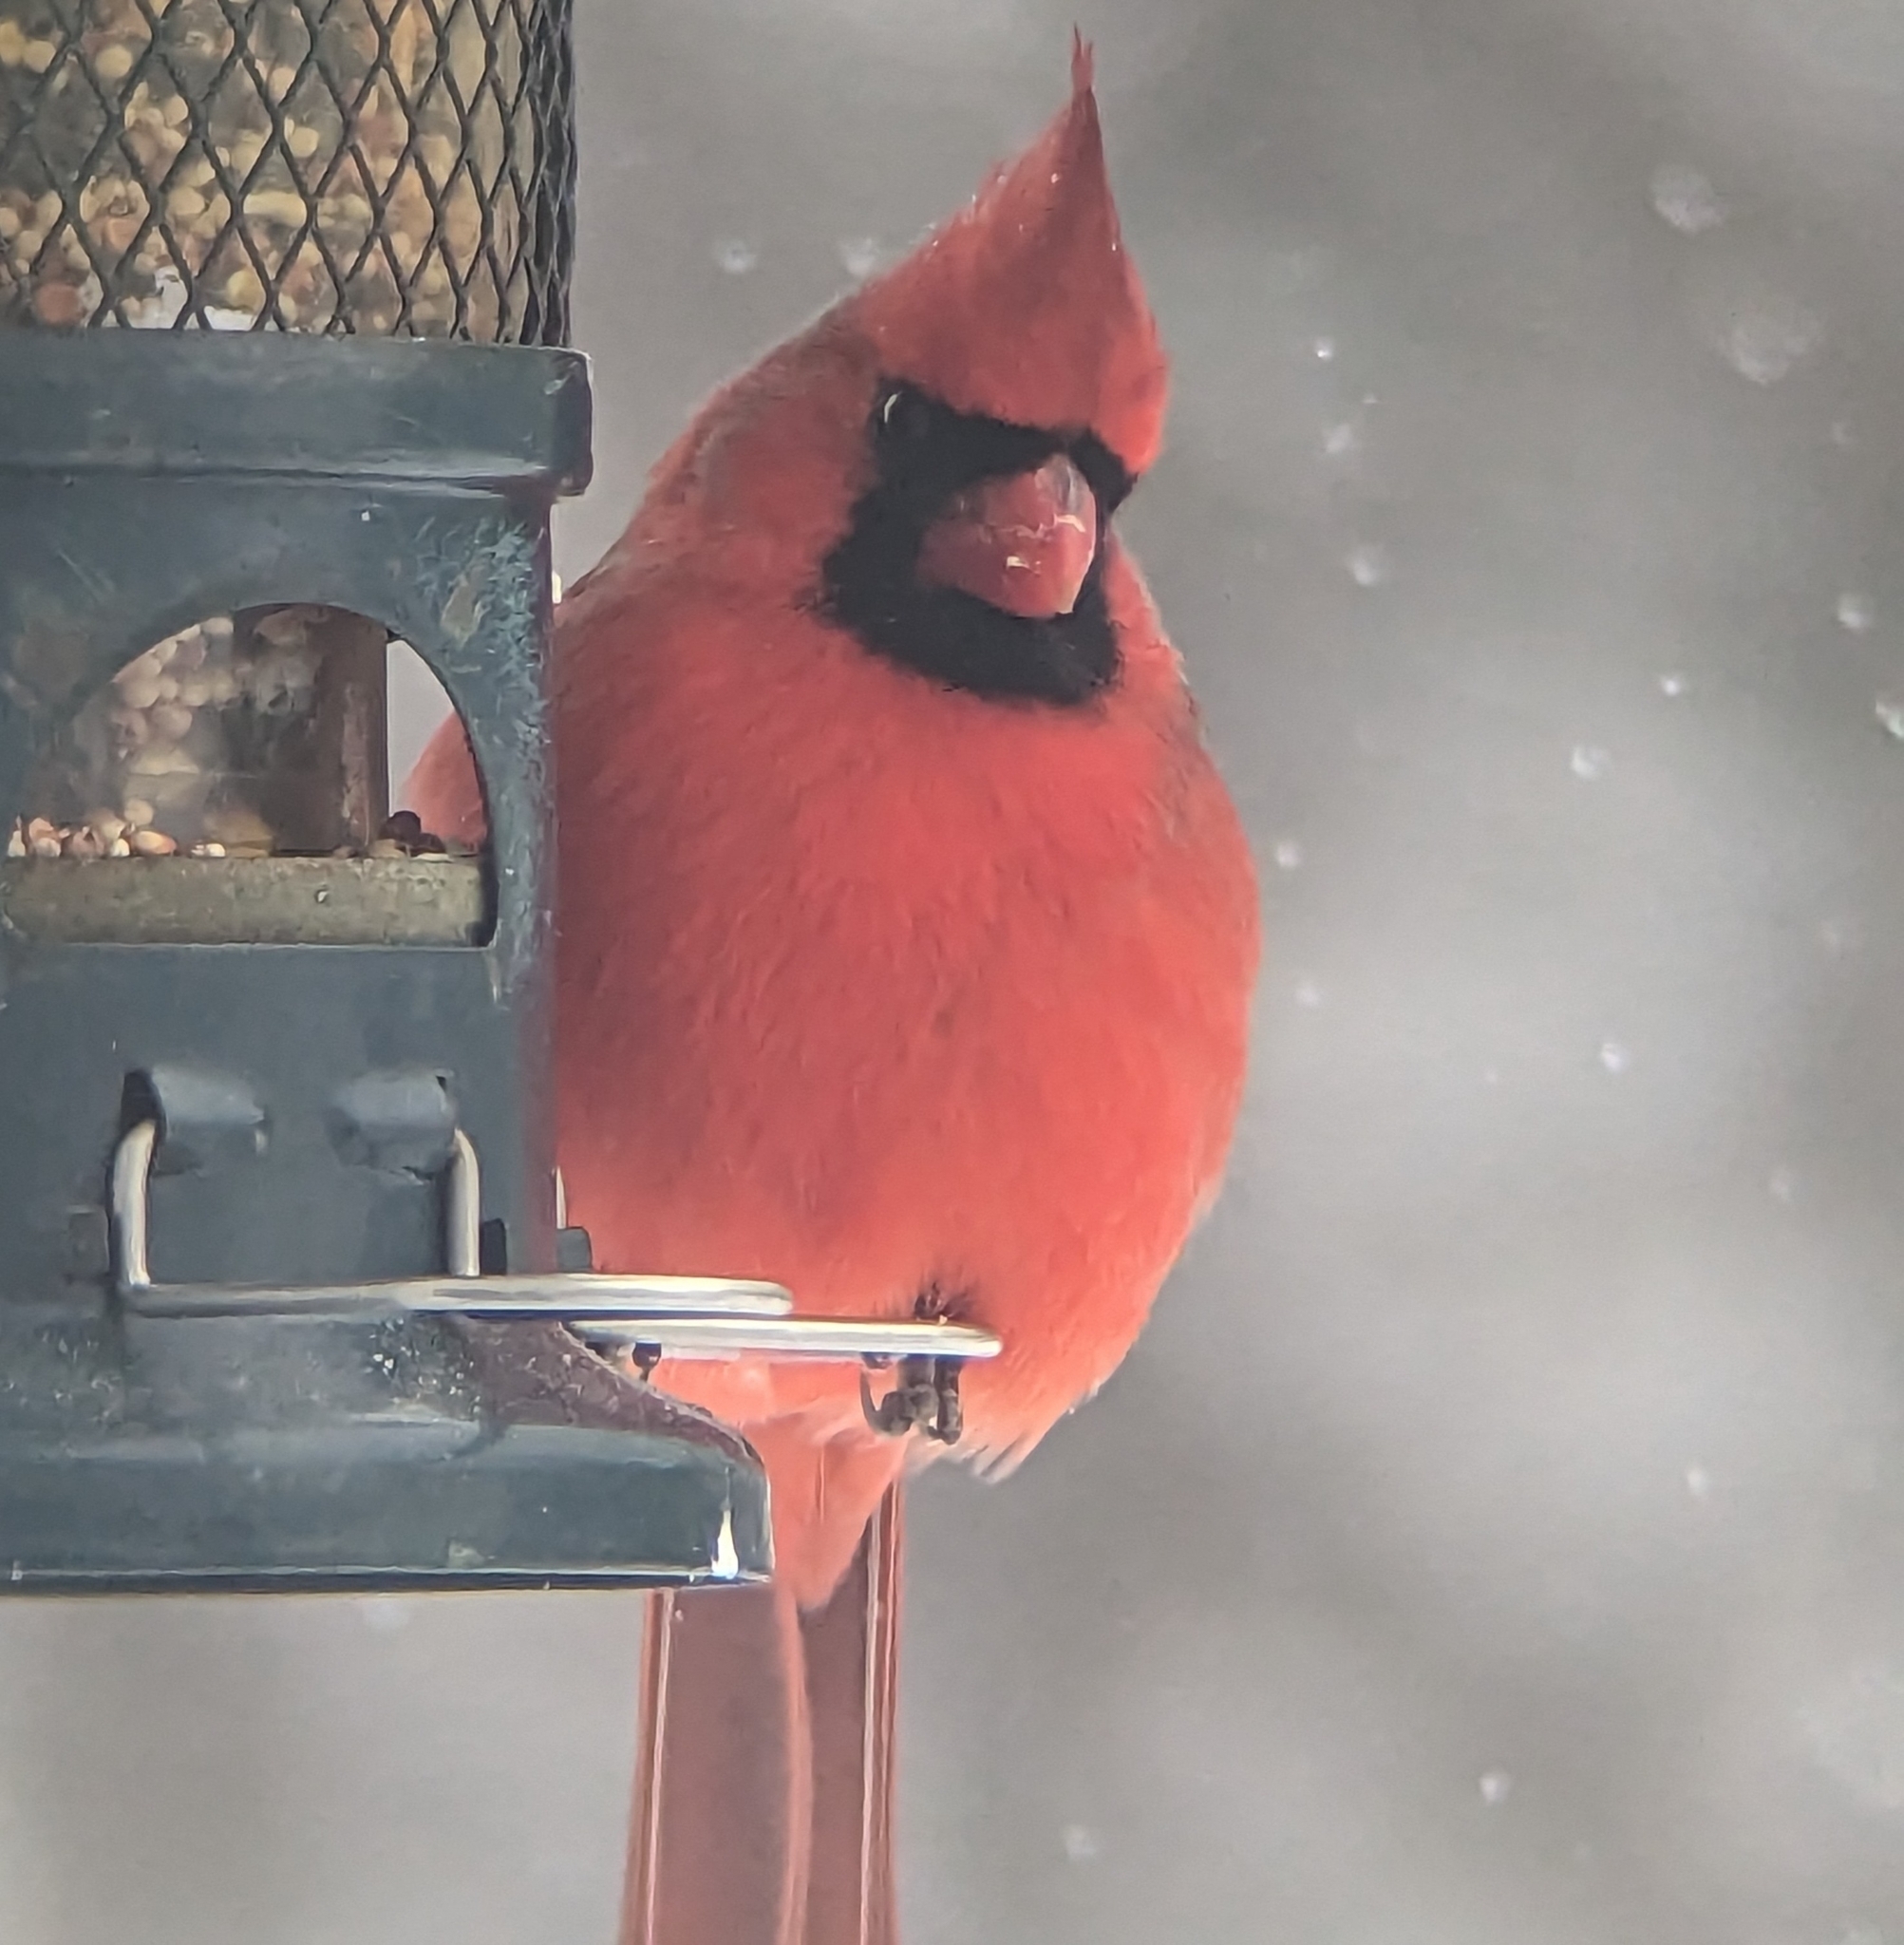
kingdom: Animalia
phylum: Chordata
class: Aves
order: Passeriformes
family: Cardinalidae
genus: Cardinalis
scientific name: Cardinalis cardinalis
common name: Northern cardinal
